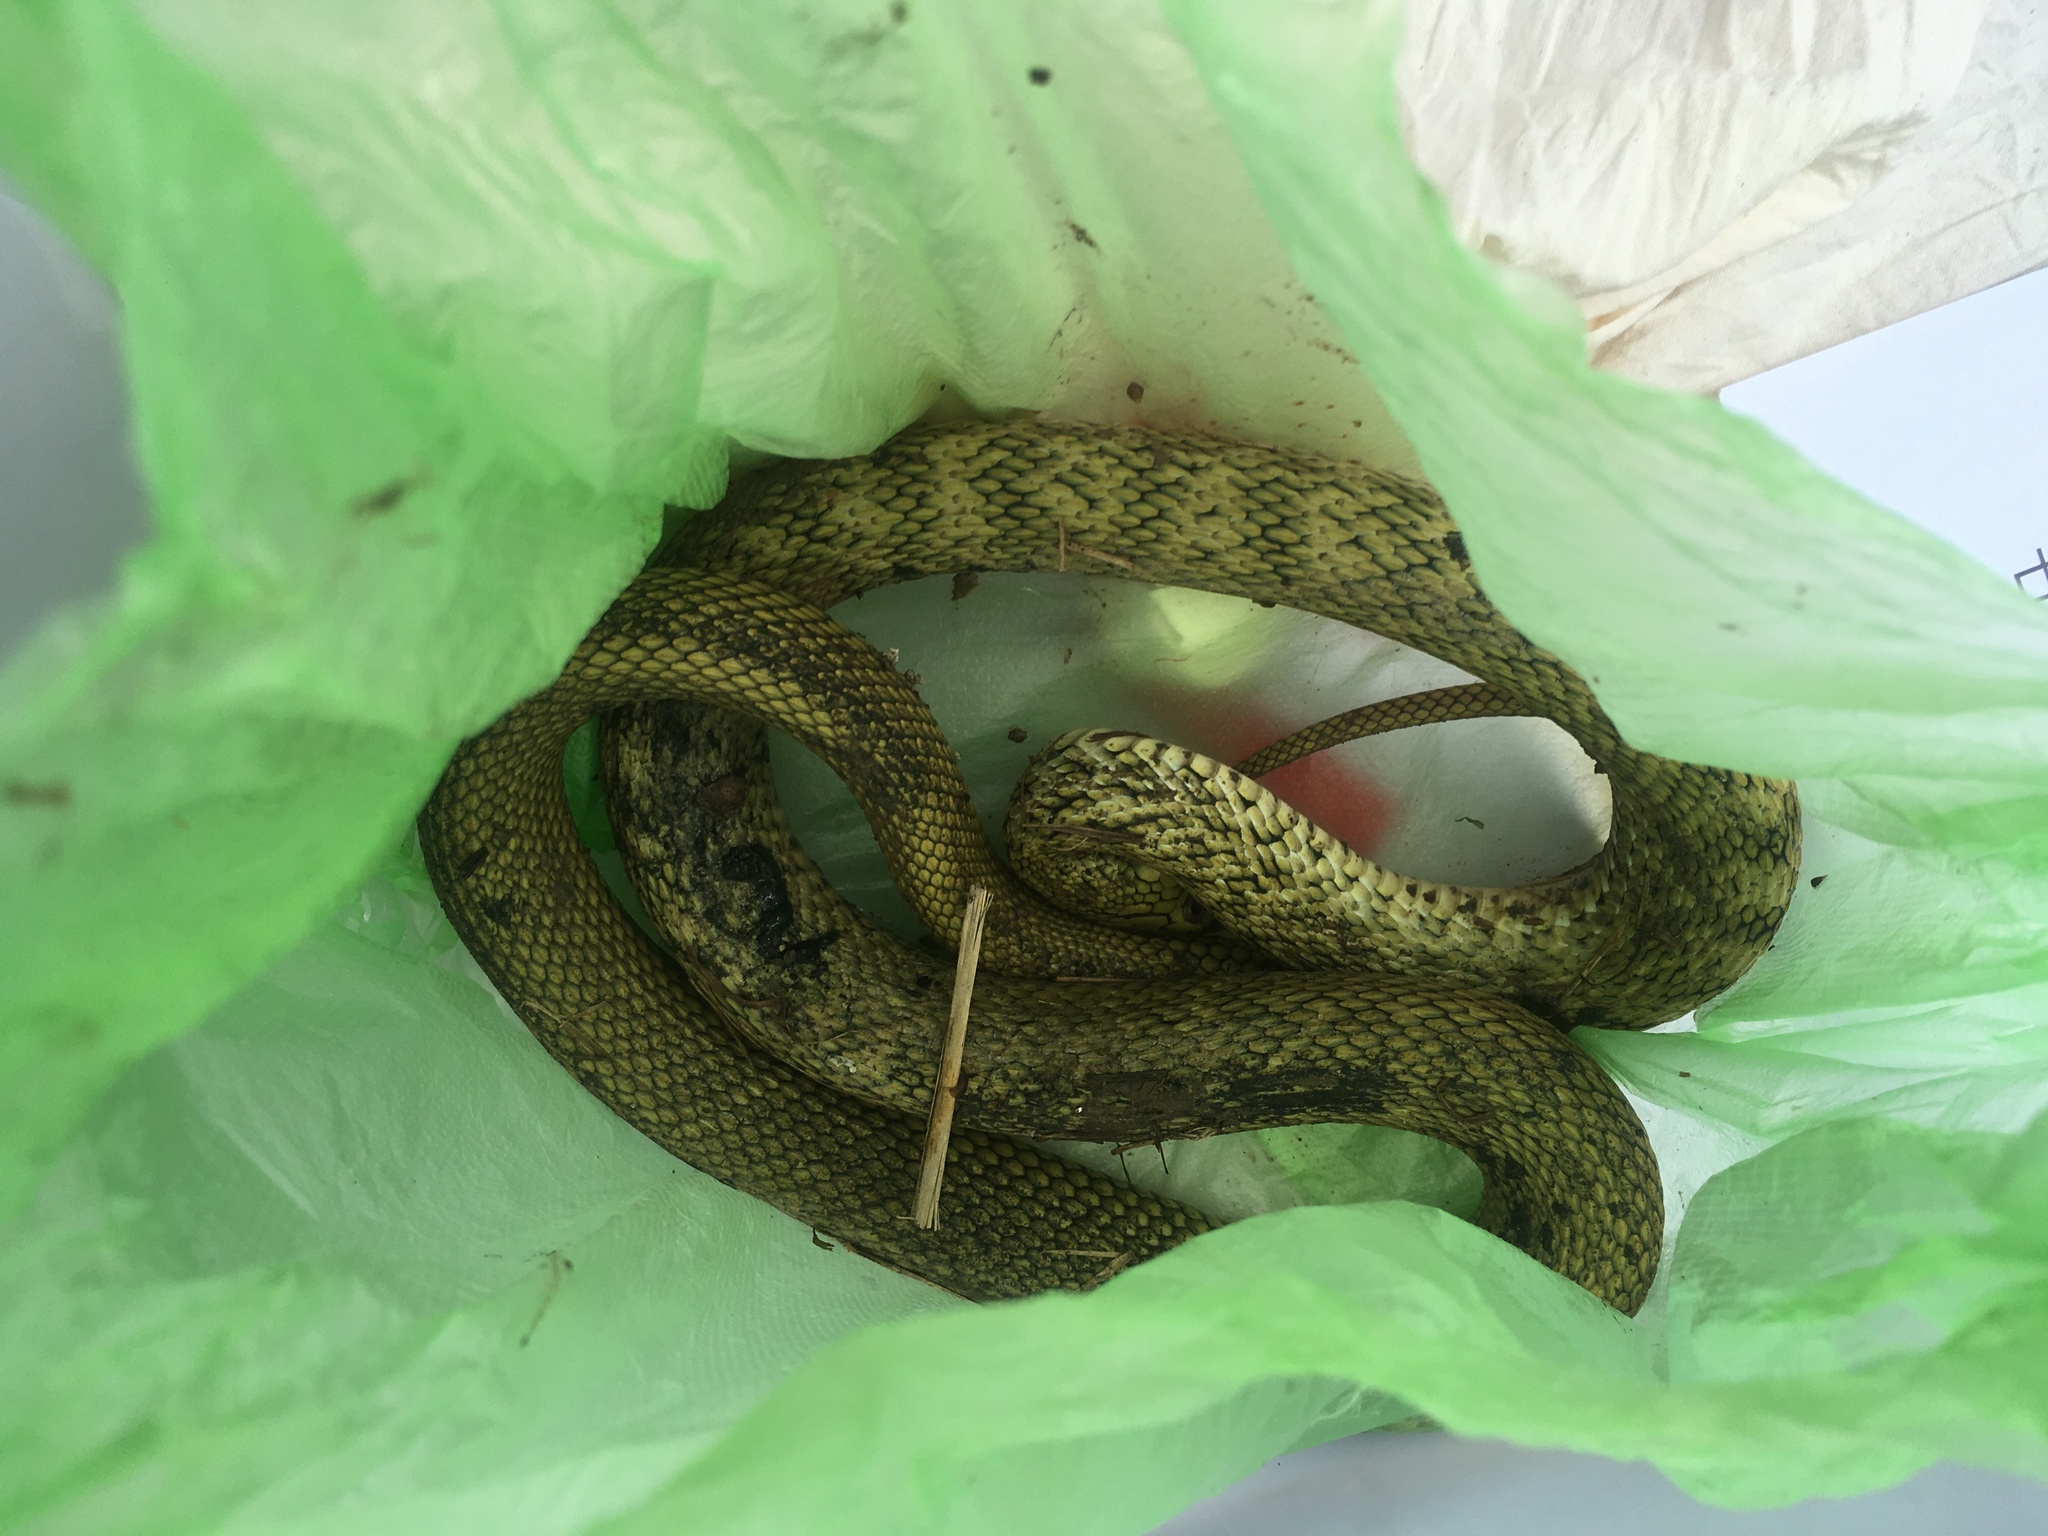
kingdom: Animalia
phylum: Chordata
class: Squamata
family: Colubridae
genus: Elaphe
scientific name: Elaphe carinata
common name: Taiwan stink snake
